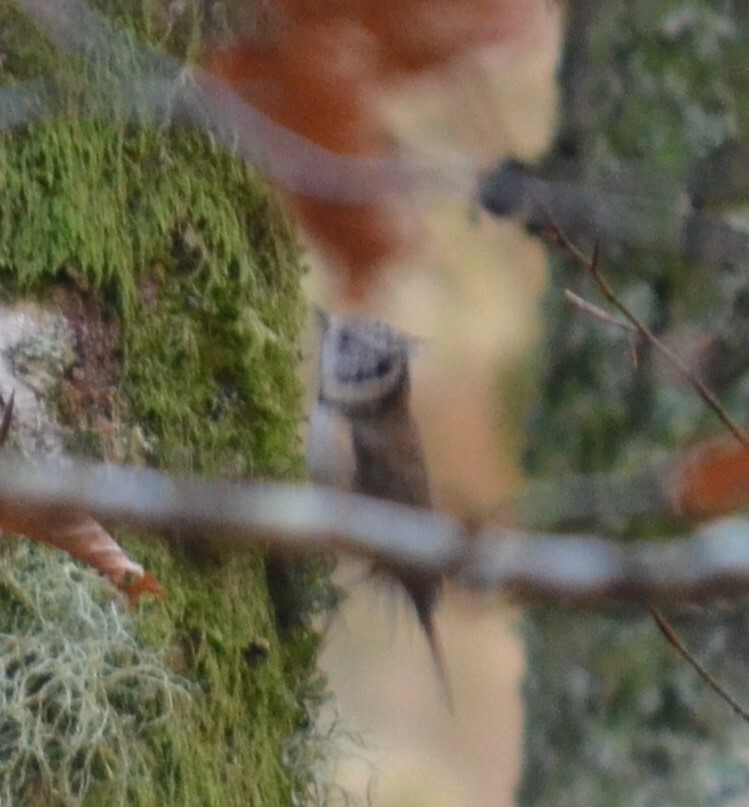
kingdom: Animalia
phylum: Chordata
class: Aves
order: Passeriformes
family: Paridae
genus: Lophophanes
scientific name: Lophophanes cristatus
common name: European crested tit
